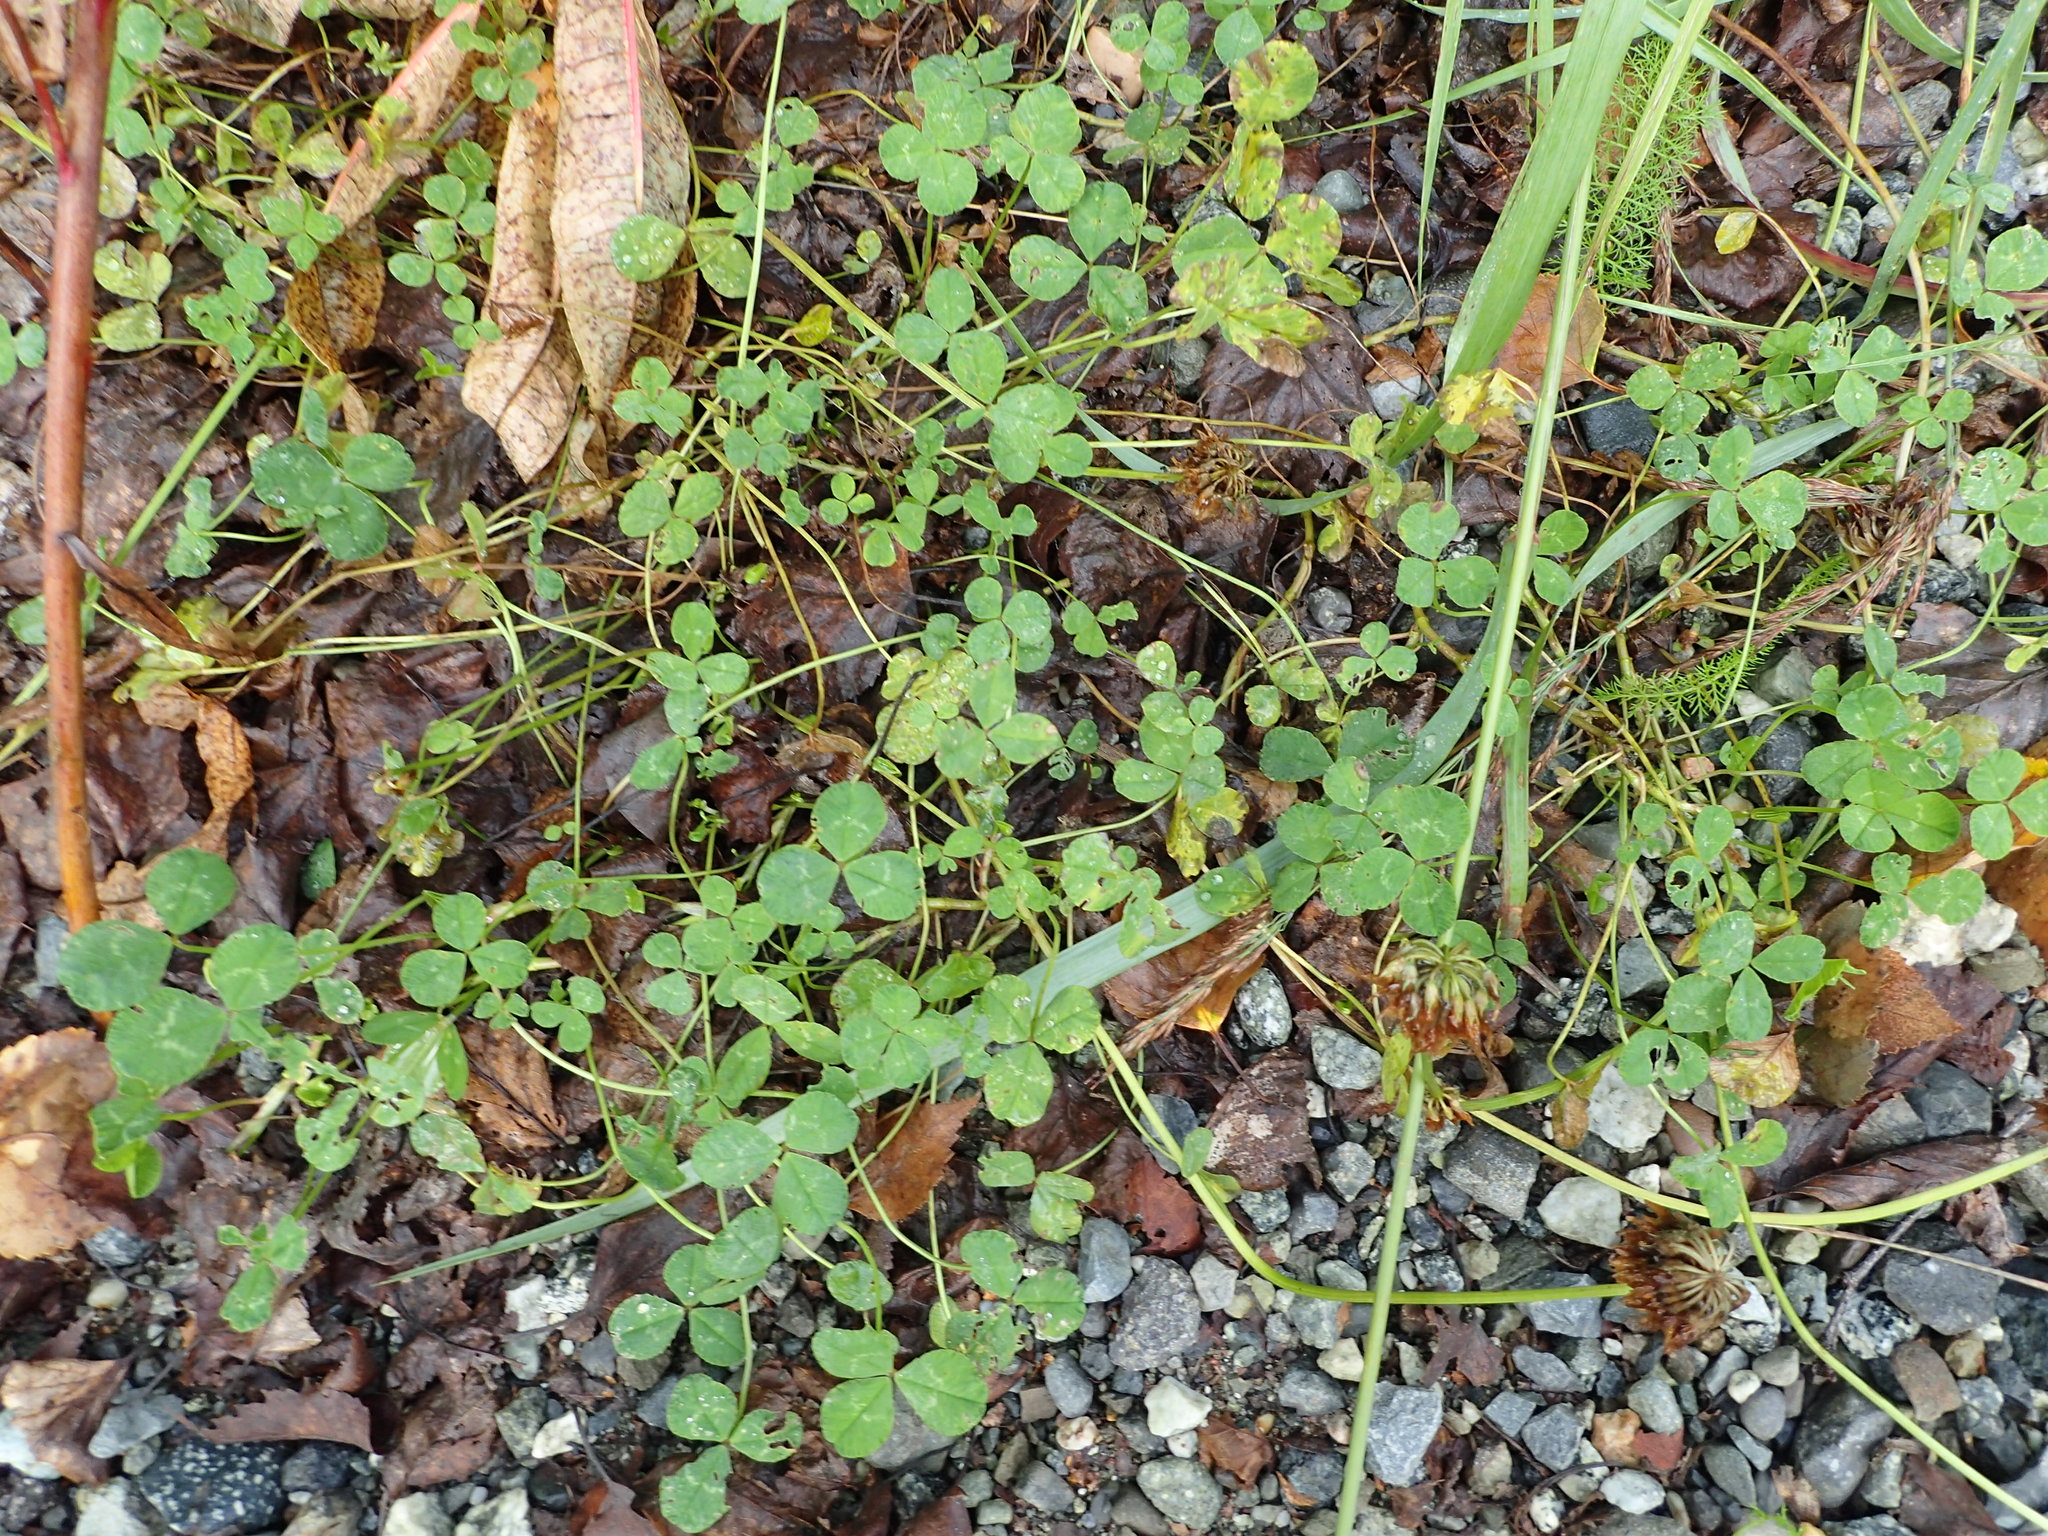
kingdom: Plantae
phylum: Tracheophyta
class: Magnoliopsida
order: Fabales
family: Fabaceae
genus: Trifolium
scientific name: Trifolium repens
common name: White clover
